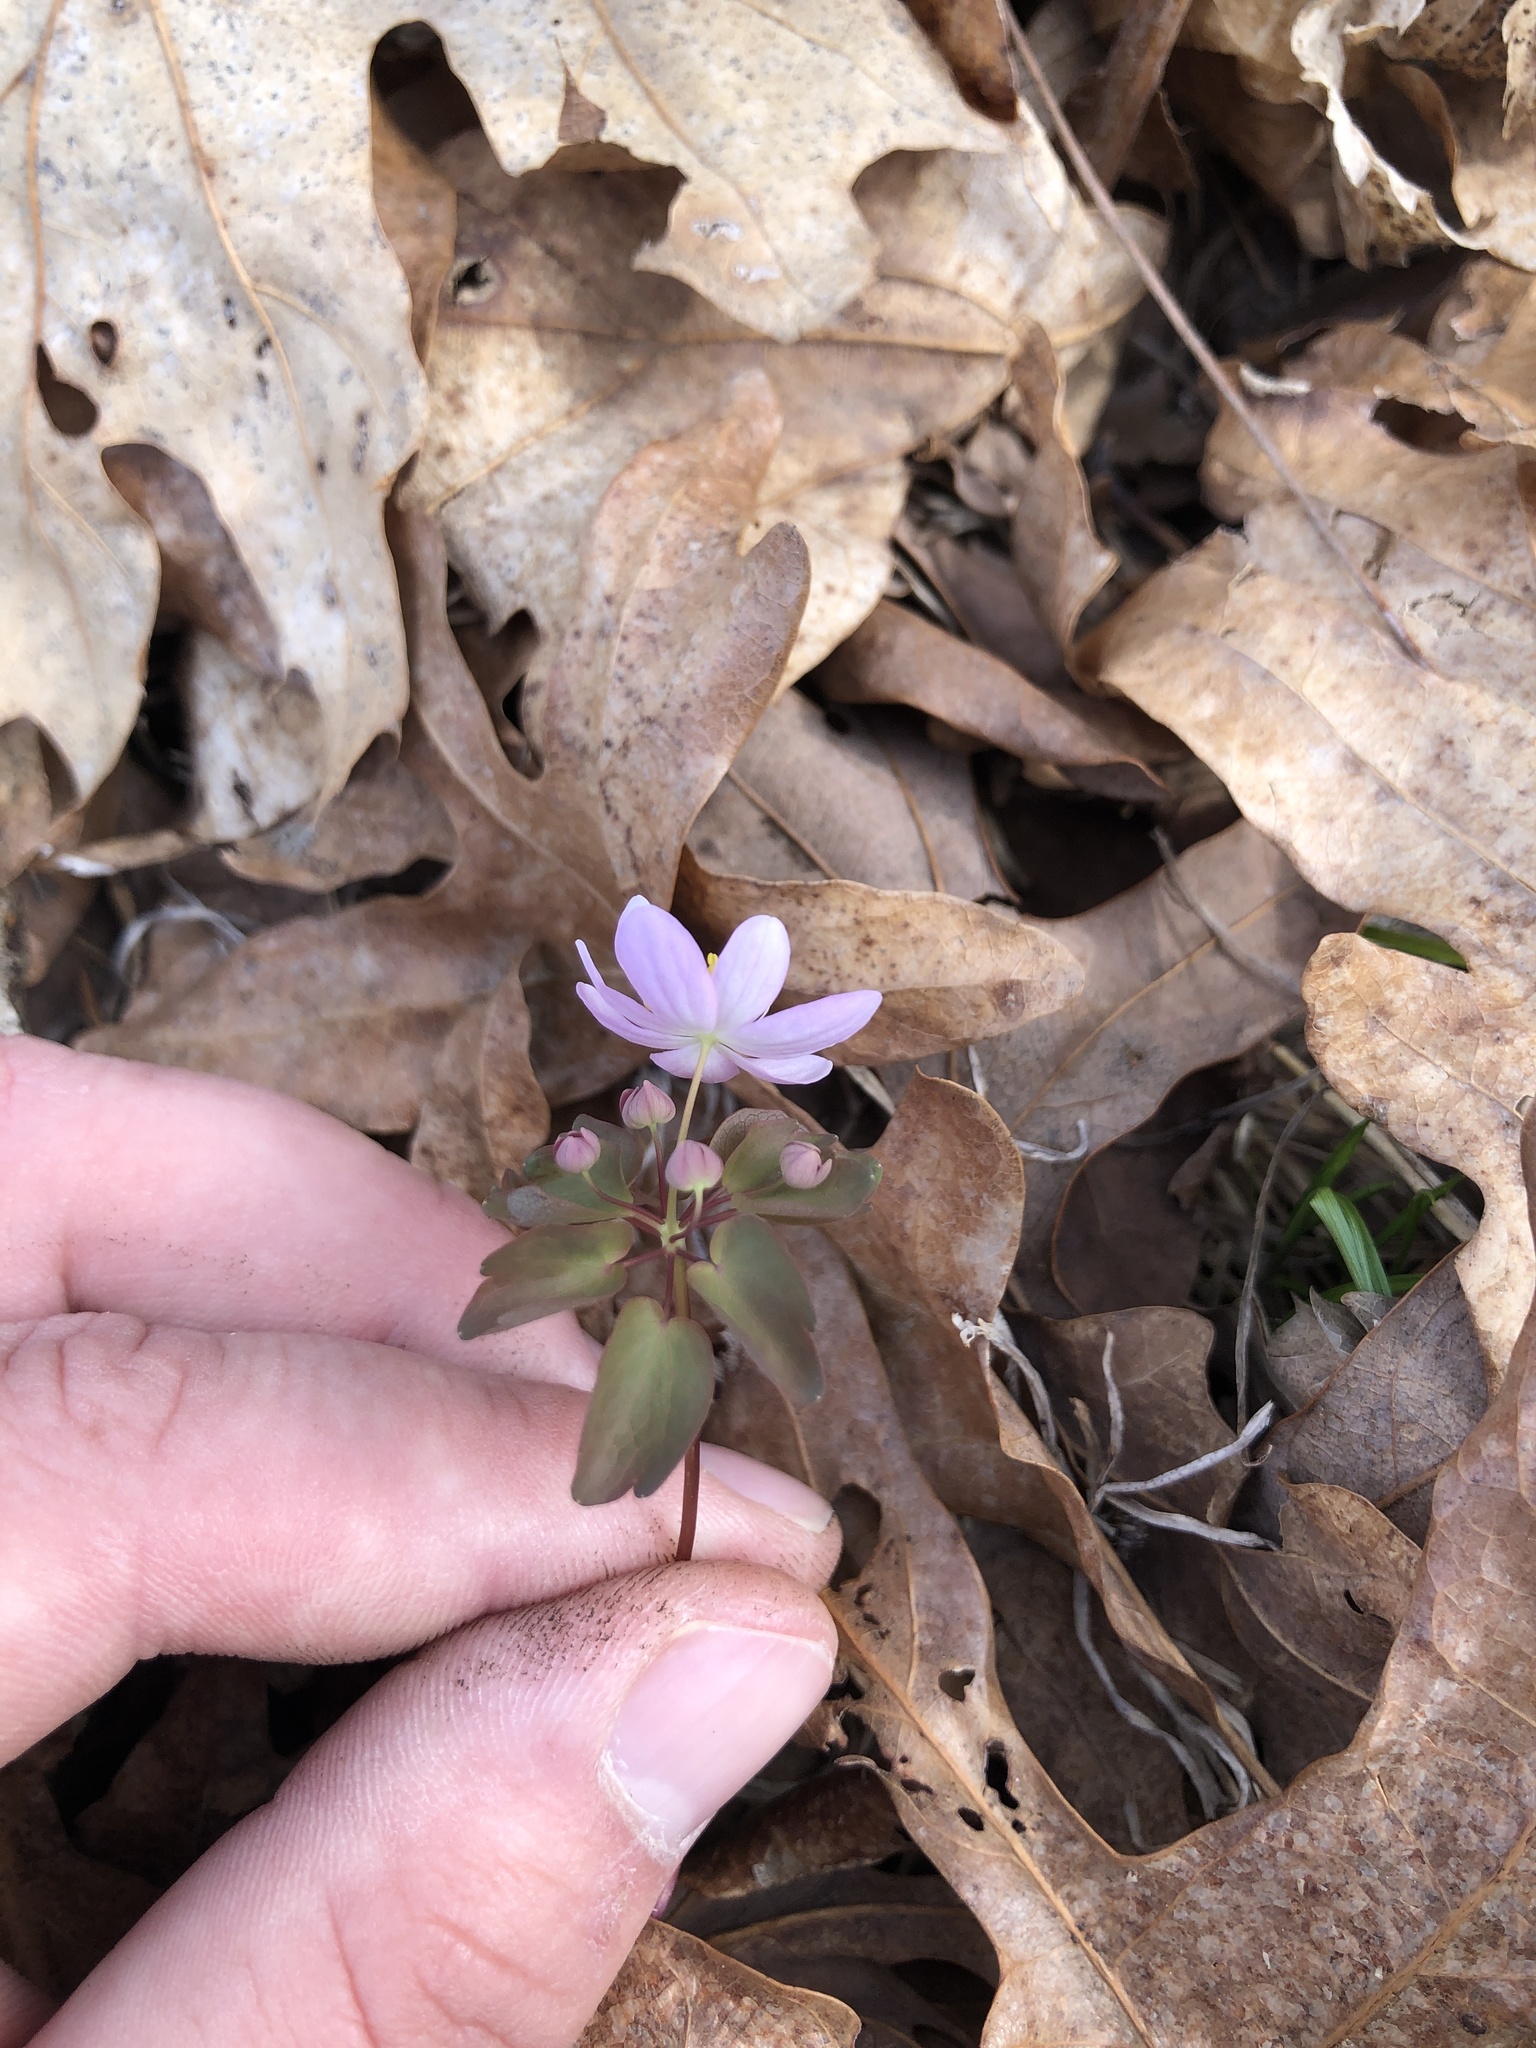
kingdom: Plantae
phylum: Tracheophyta
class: Magnoliopsida
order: Ranunculales
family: Ranunculaceae
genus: Thalictrum
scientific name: Thalictrum thalictroides
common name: Rue-anemone
